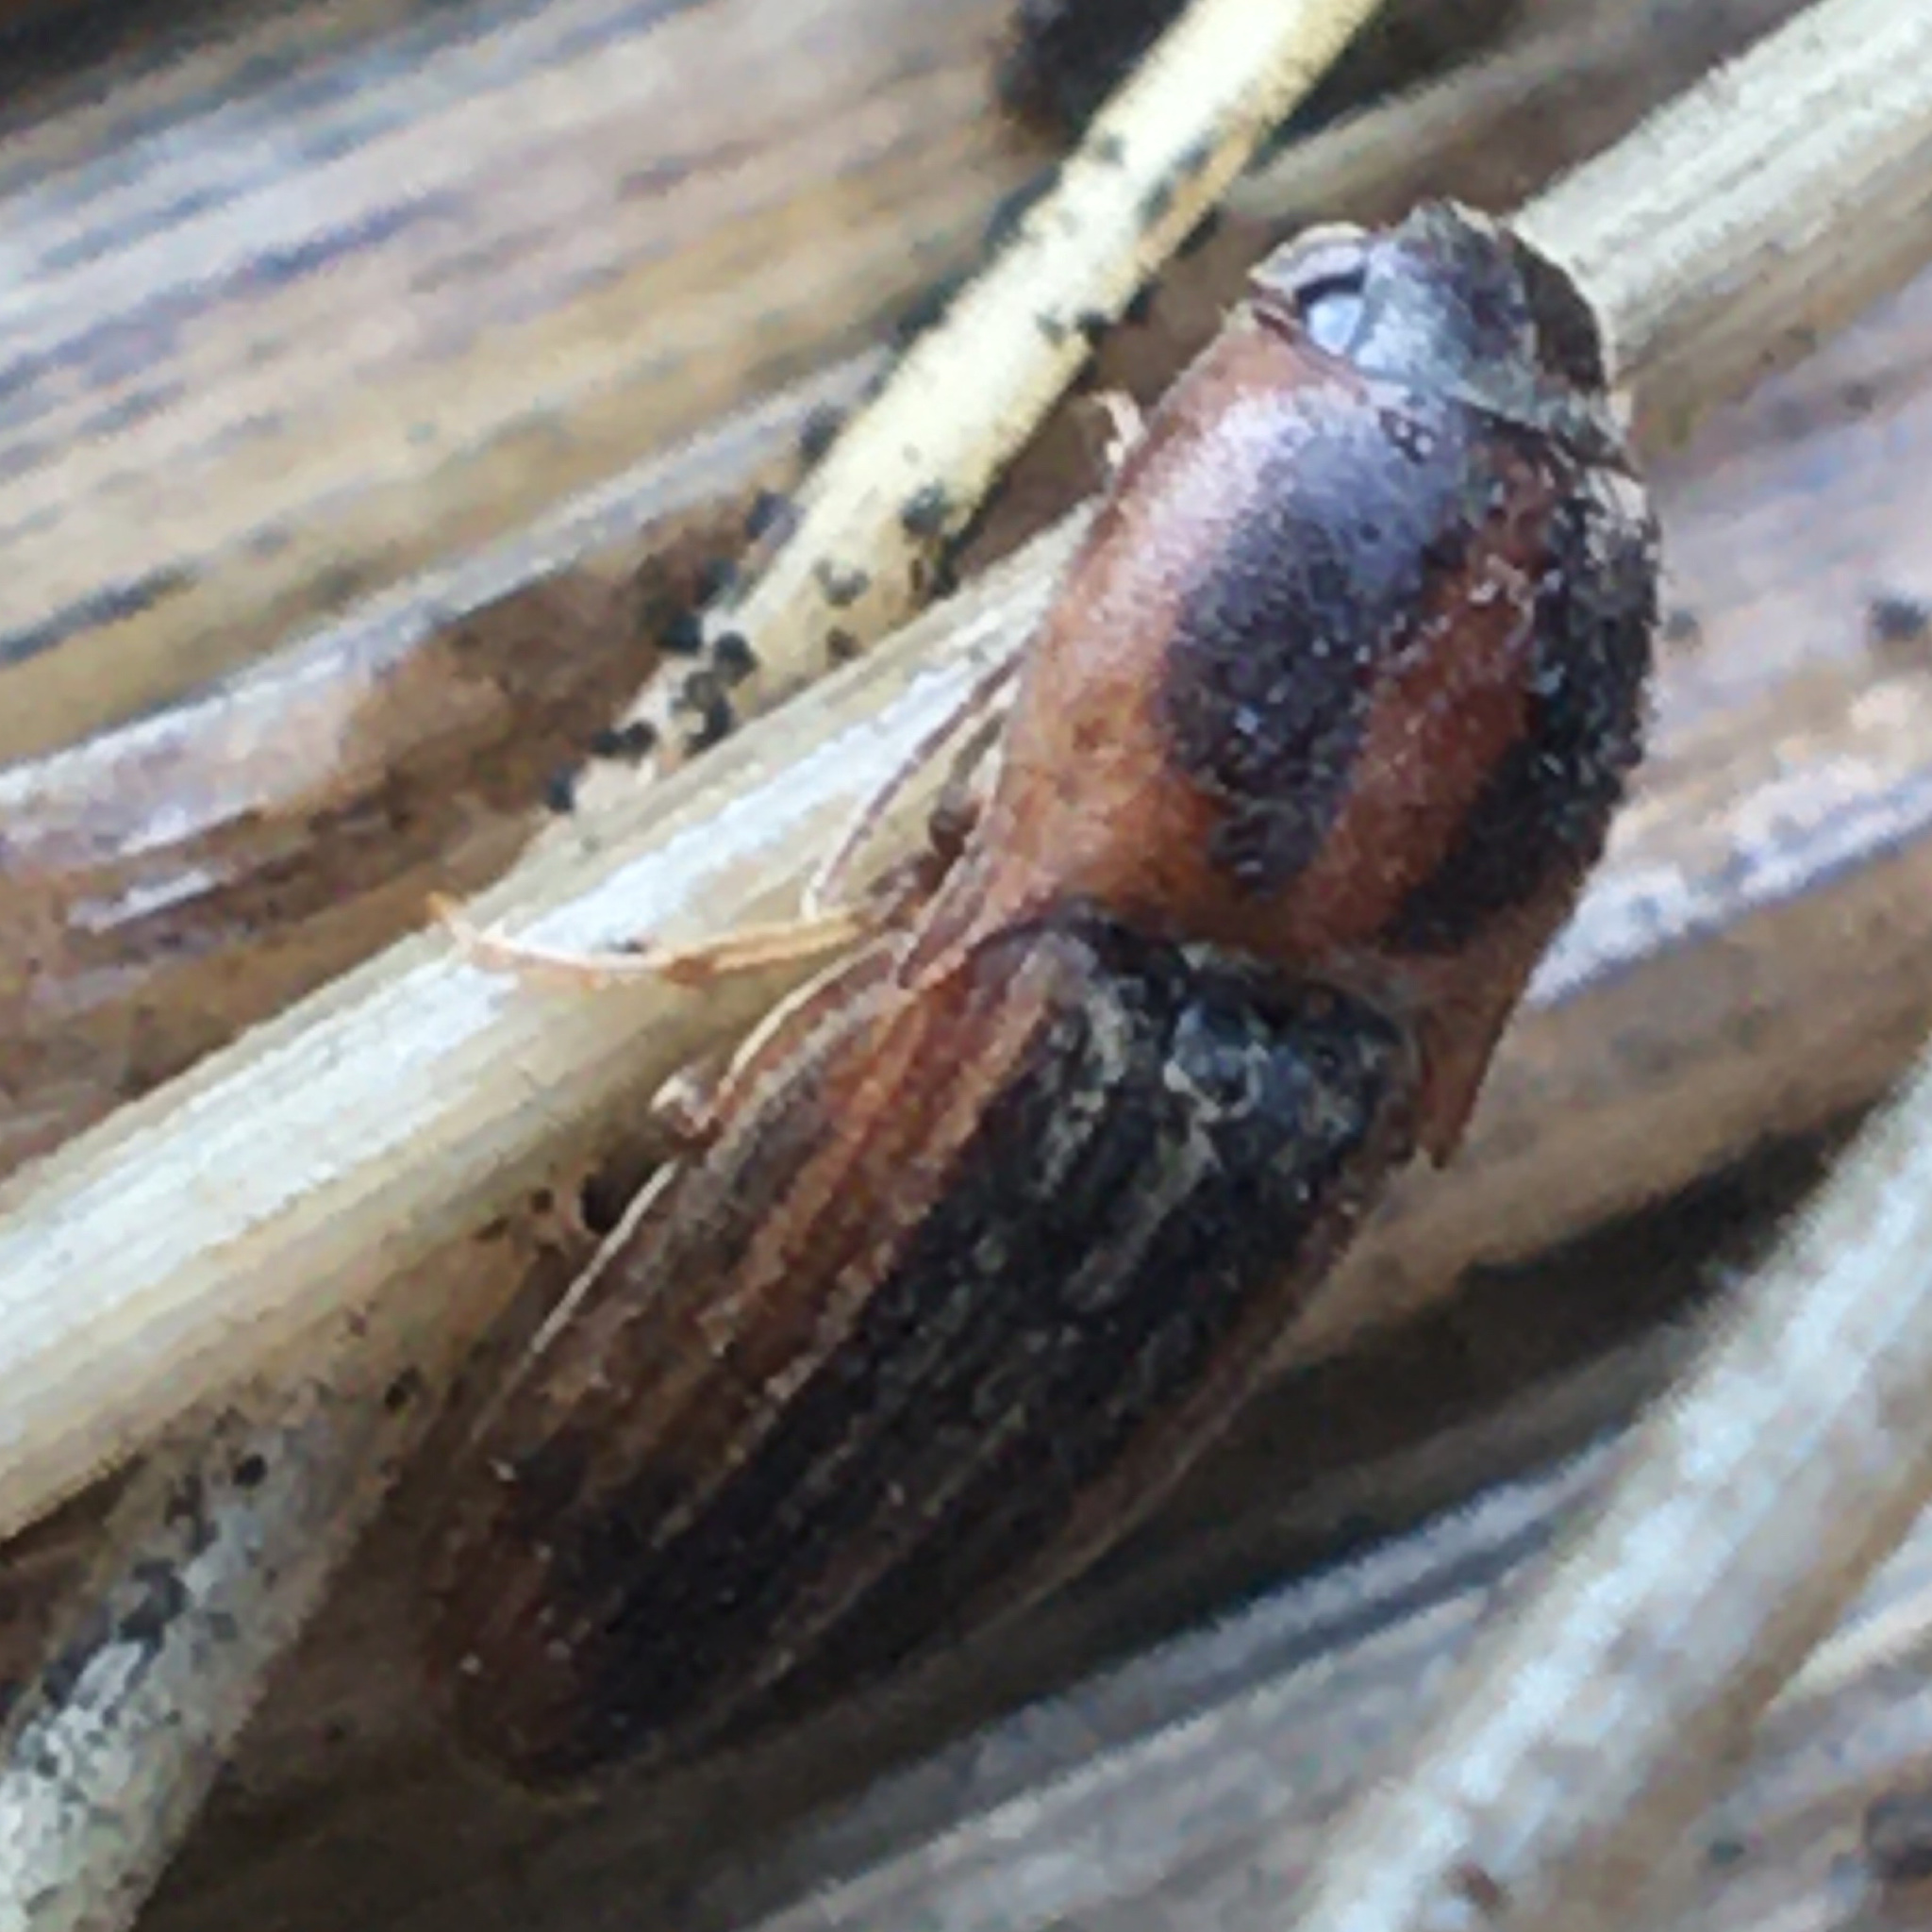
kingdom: Animalia
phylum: Arthropoda
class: Insecta
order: Coleoptera
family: Elateridae
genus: Monocrepidius
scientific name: Monocrepidius
